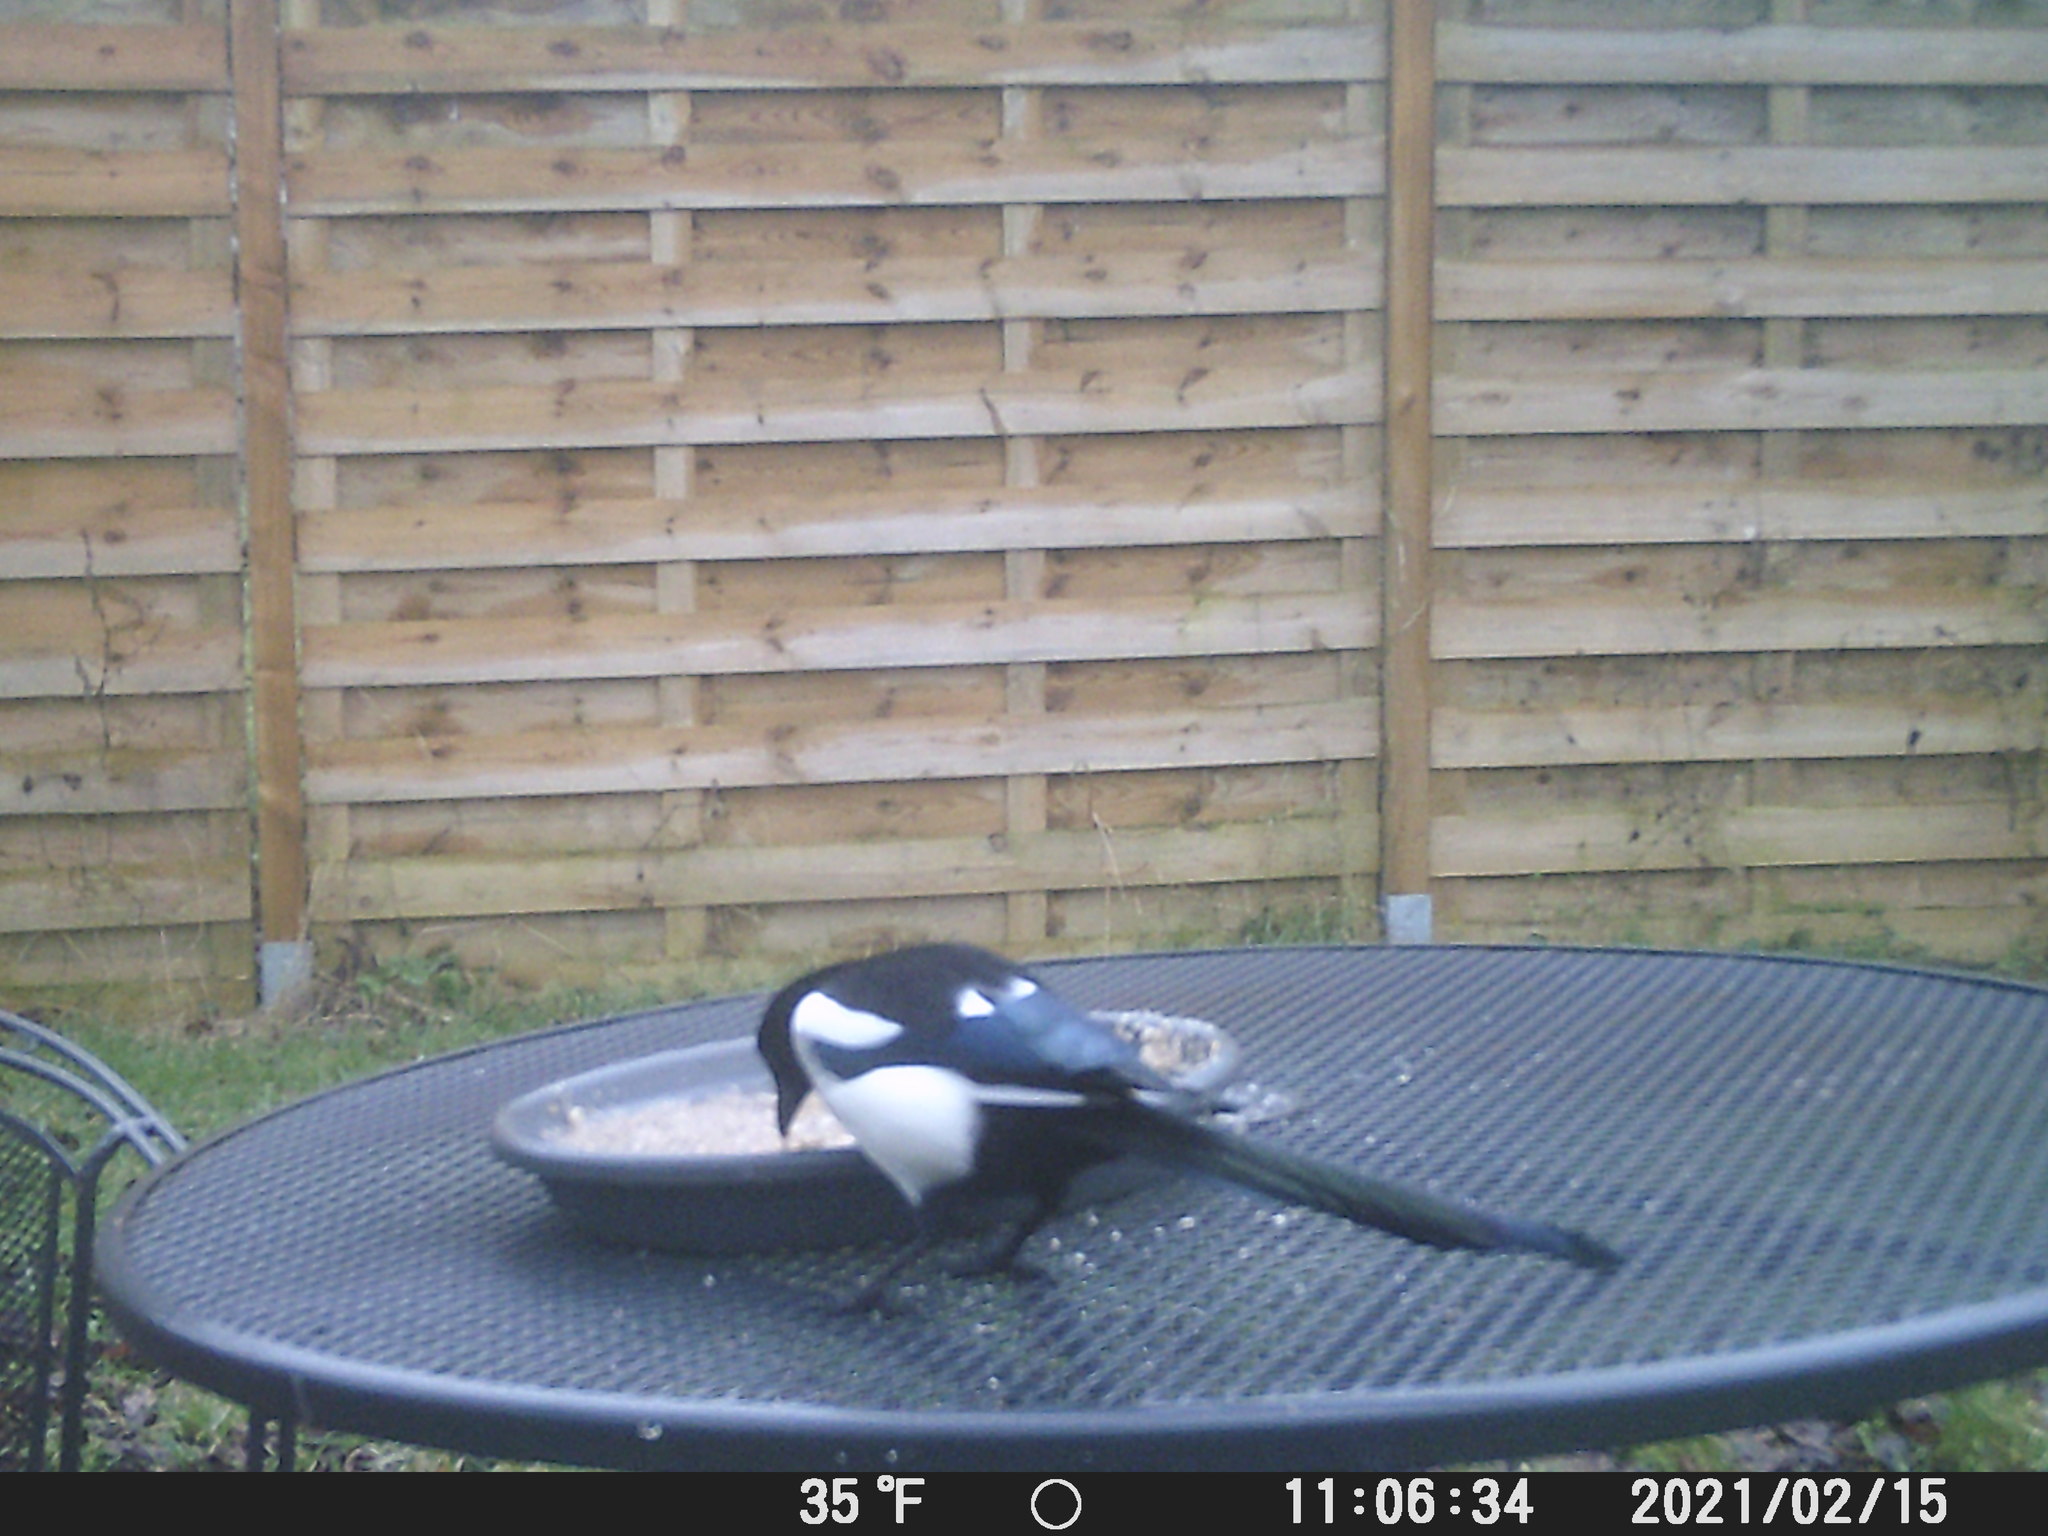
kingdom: Animalia
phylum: Chordata
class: Aves
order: Passeriformes
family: Corvidae
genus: Pica
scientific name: Pica pica
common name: Eurasian magpie
